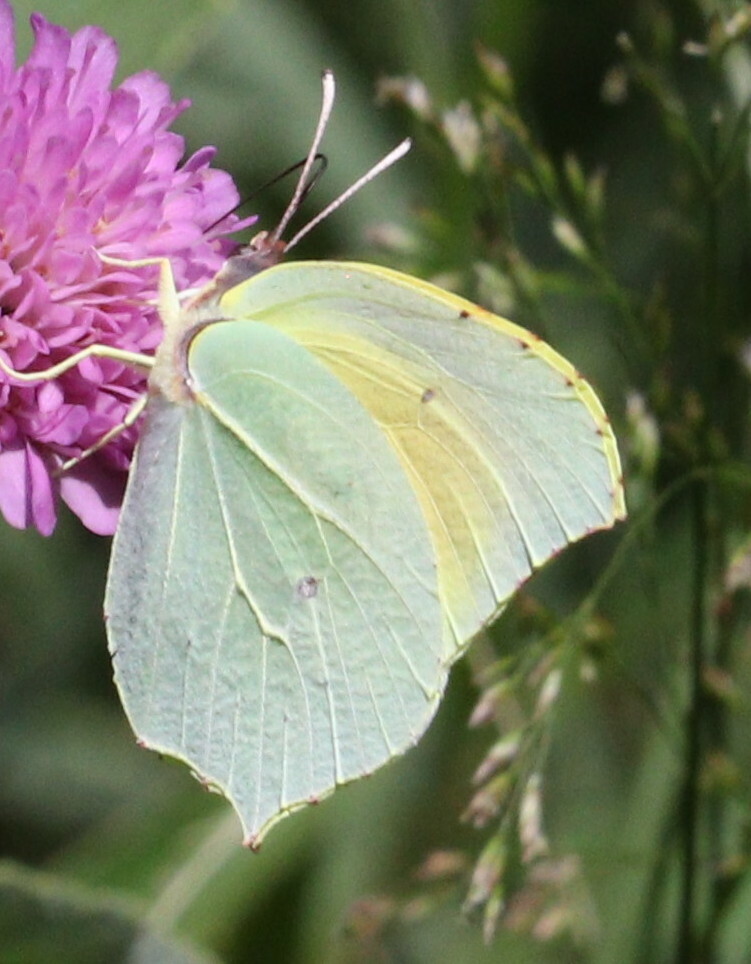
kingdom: Animalia
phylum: Arthropoda
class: Insecta
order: Lepidoptera
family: Pieridae
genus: Gonepteryx
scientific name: Gonepteryx cleopatra
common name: Cleopatra
